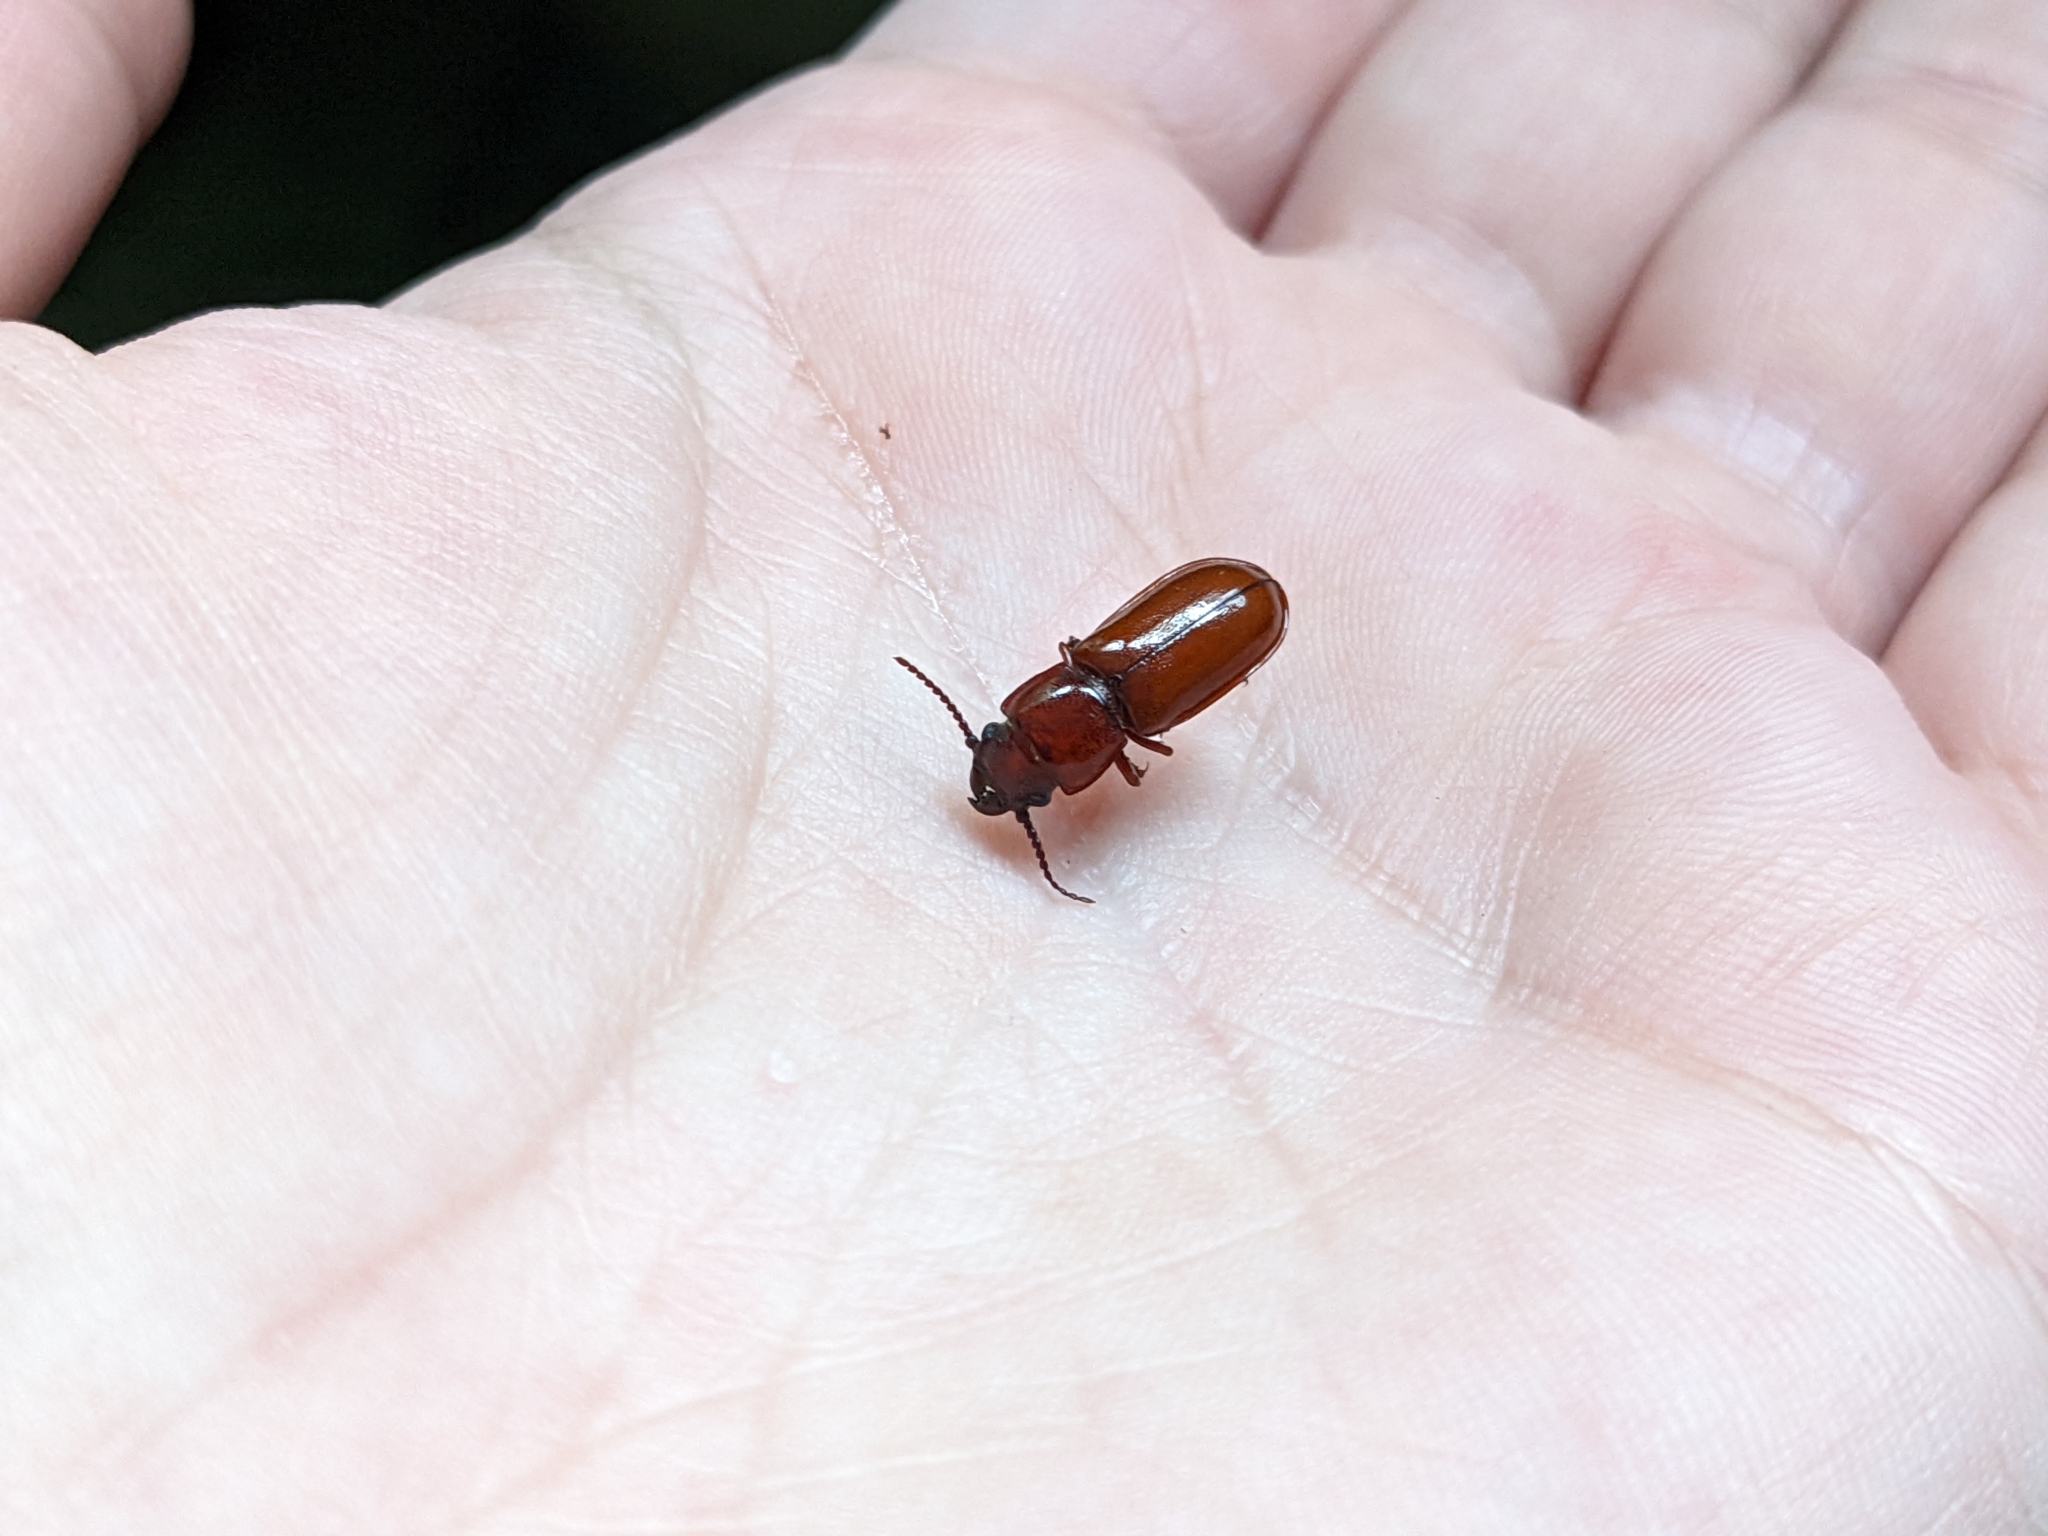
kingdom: Animalia
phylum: Arthropoda
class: Insecta
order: Coleoptera
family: Cerambycidae
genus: Neandra
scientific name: Neandra brunnea
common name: Pole borer
